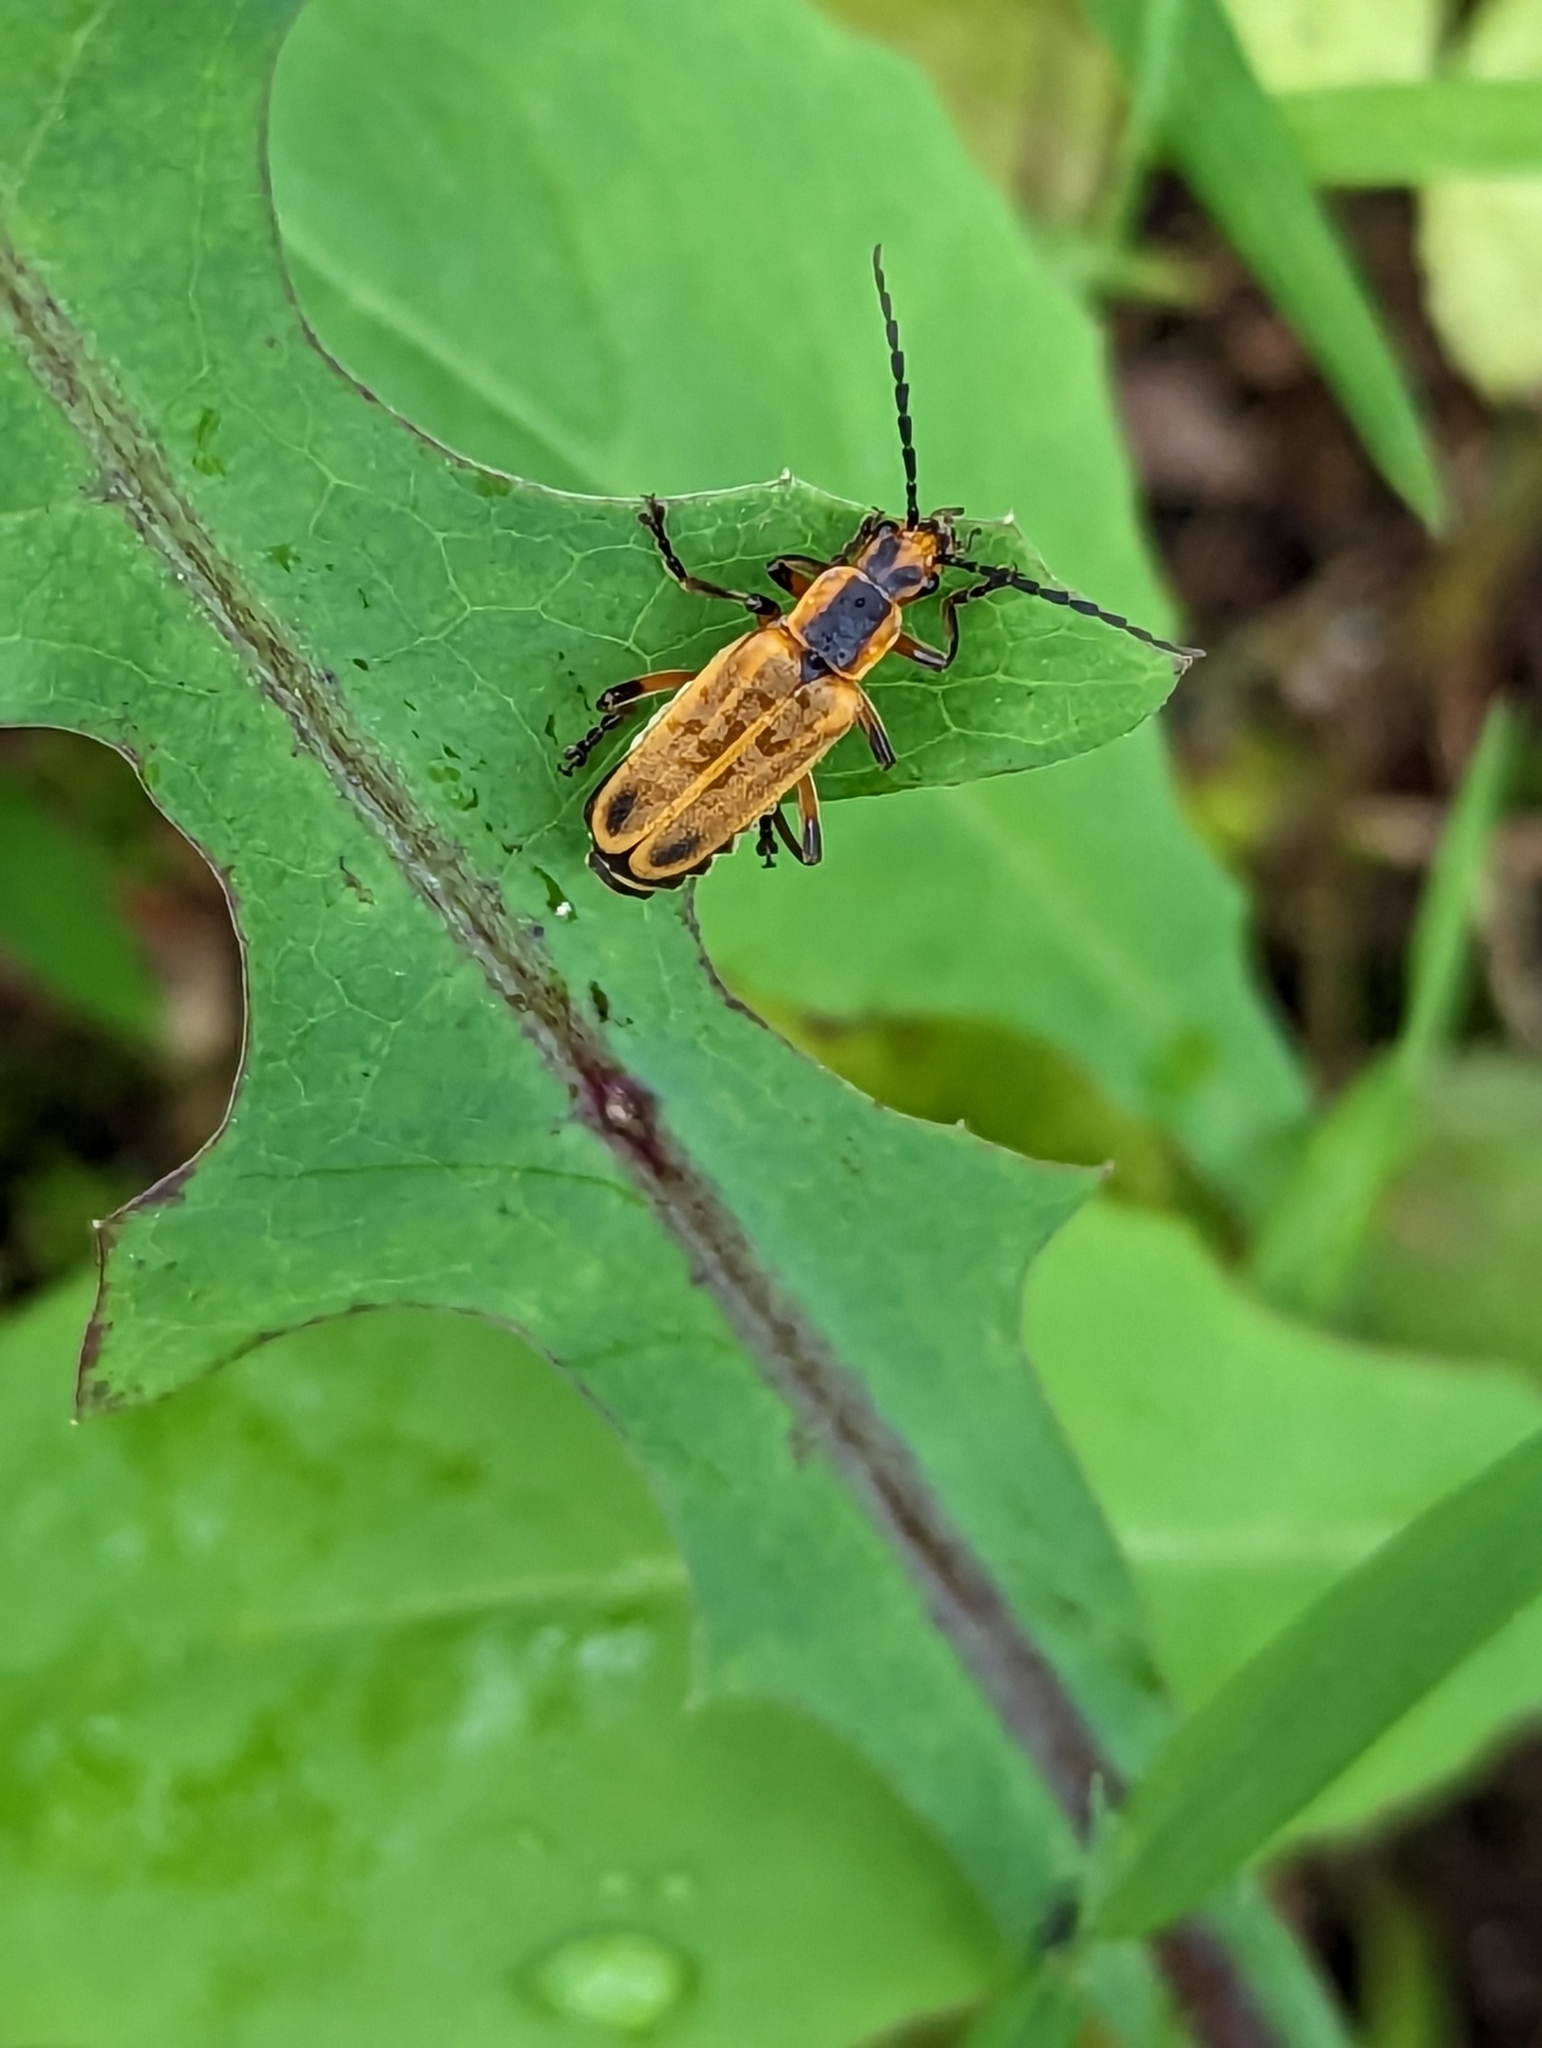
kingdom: Animalia
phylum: Arthropoda
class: Insecta
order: Coleoptera
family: Cantharidae
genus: Chauliognathus
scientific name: Chauliognathus marginatus
